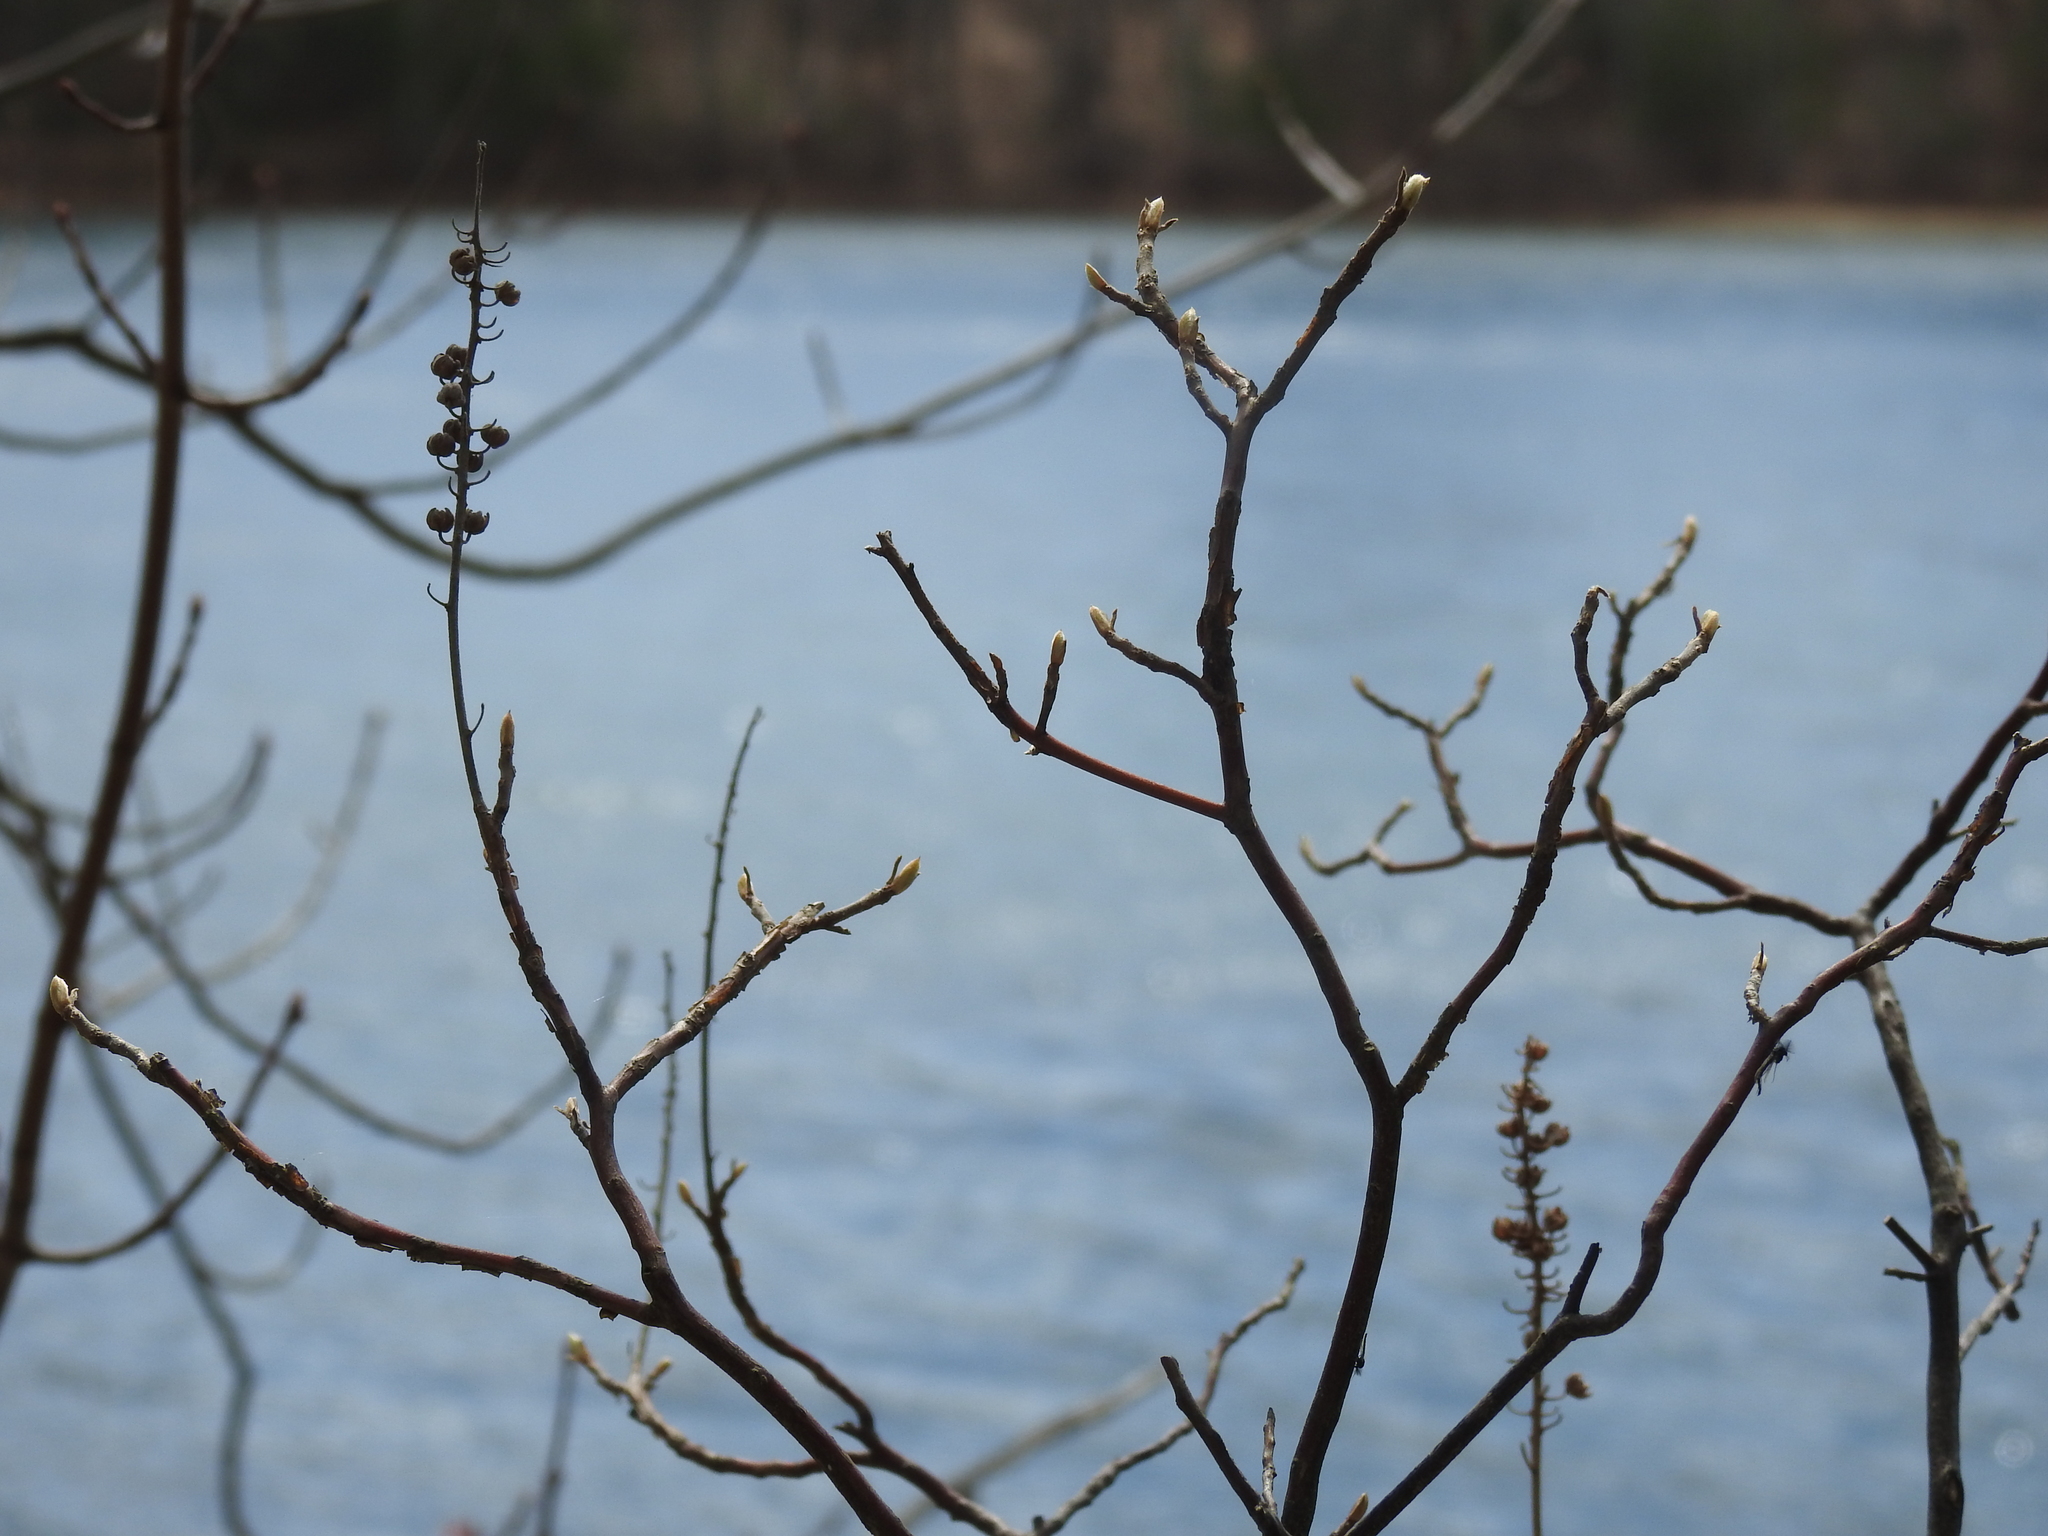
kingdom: Plantae
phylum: Tracheophyta
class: Magnoliopsida
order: Ericales
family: Clethraceae
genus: Clethra
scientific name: Clethra alnifolia
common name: Sweet pepperbush
